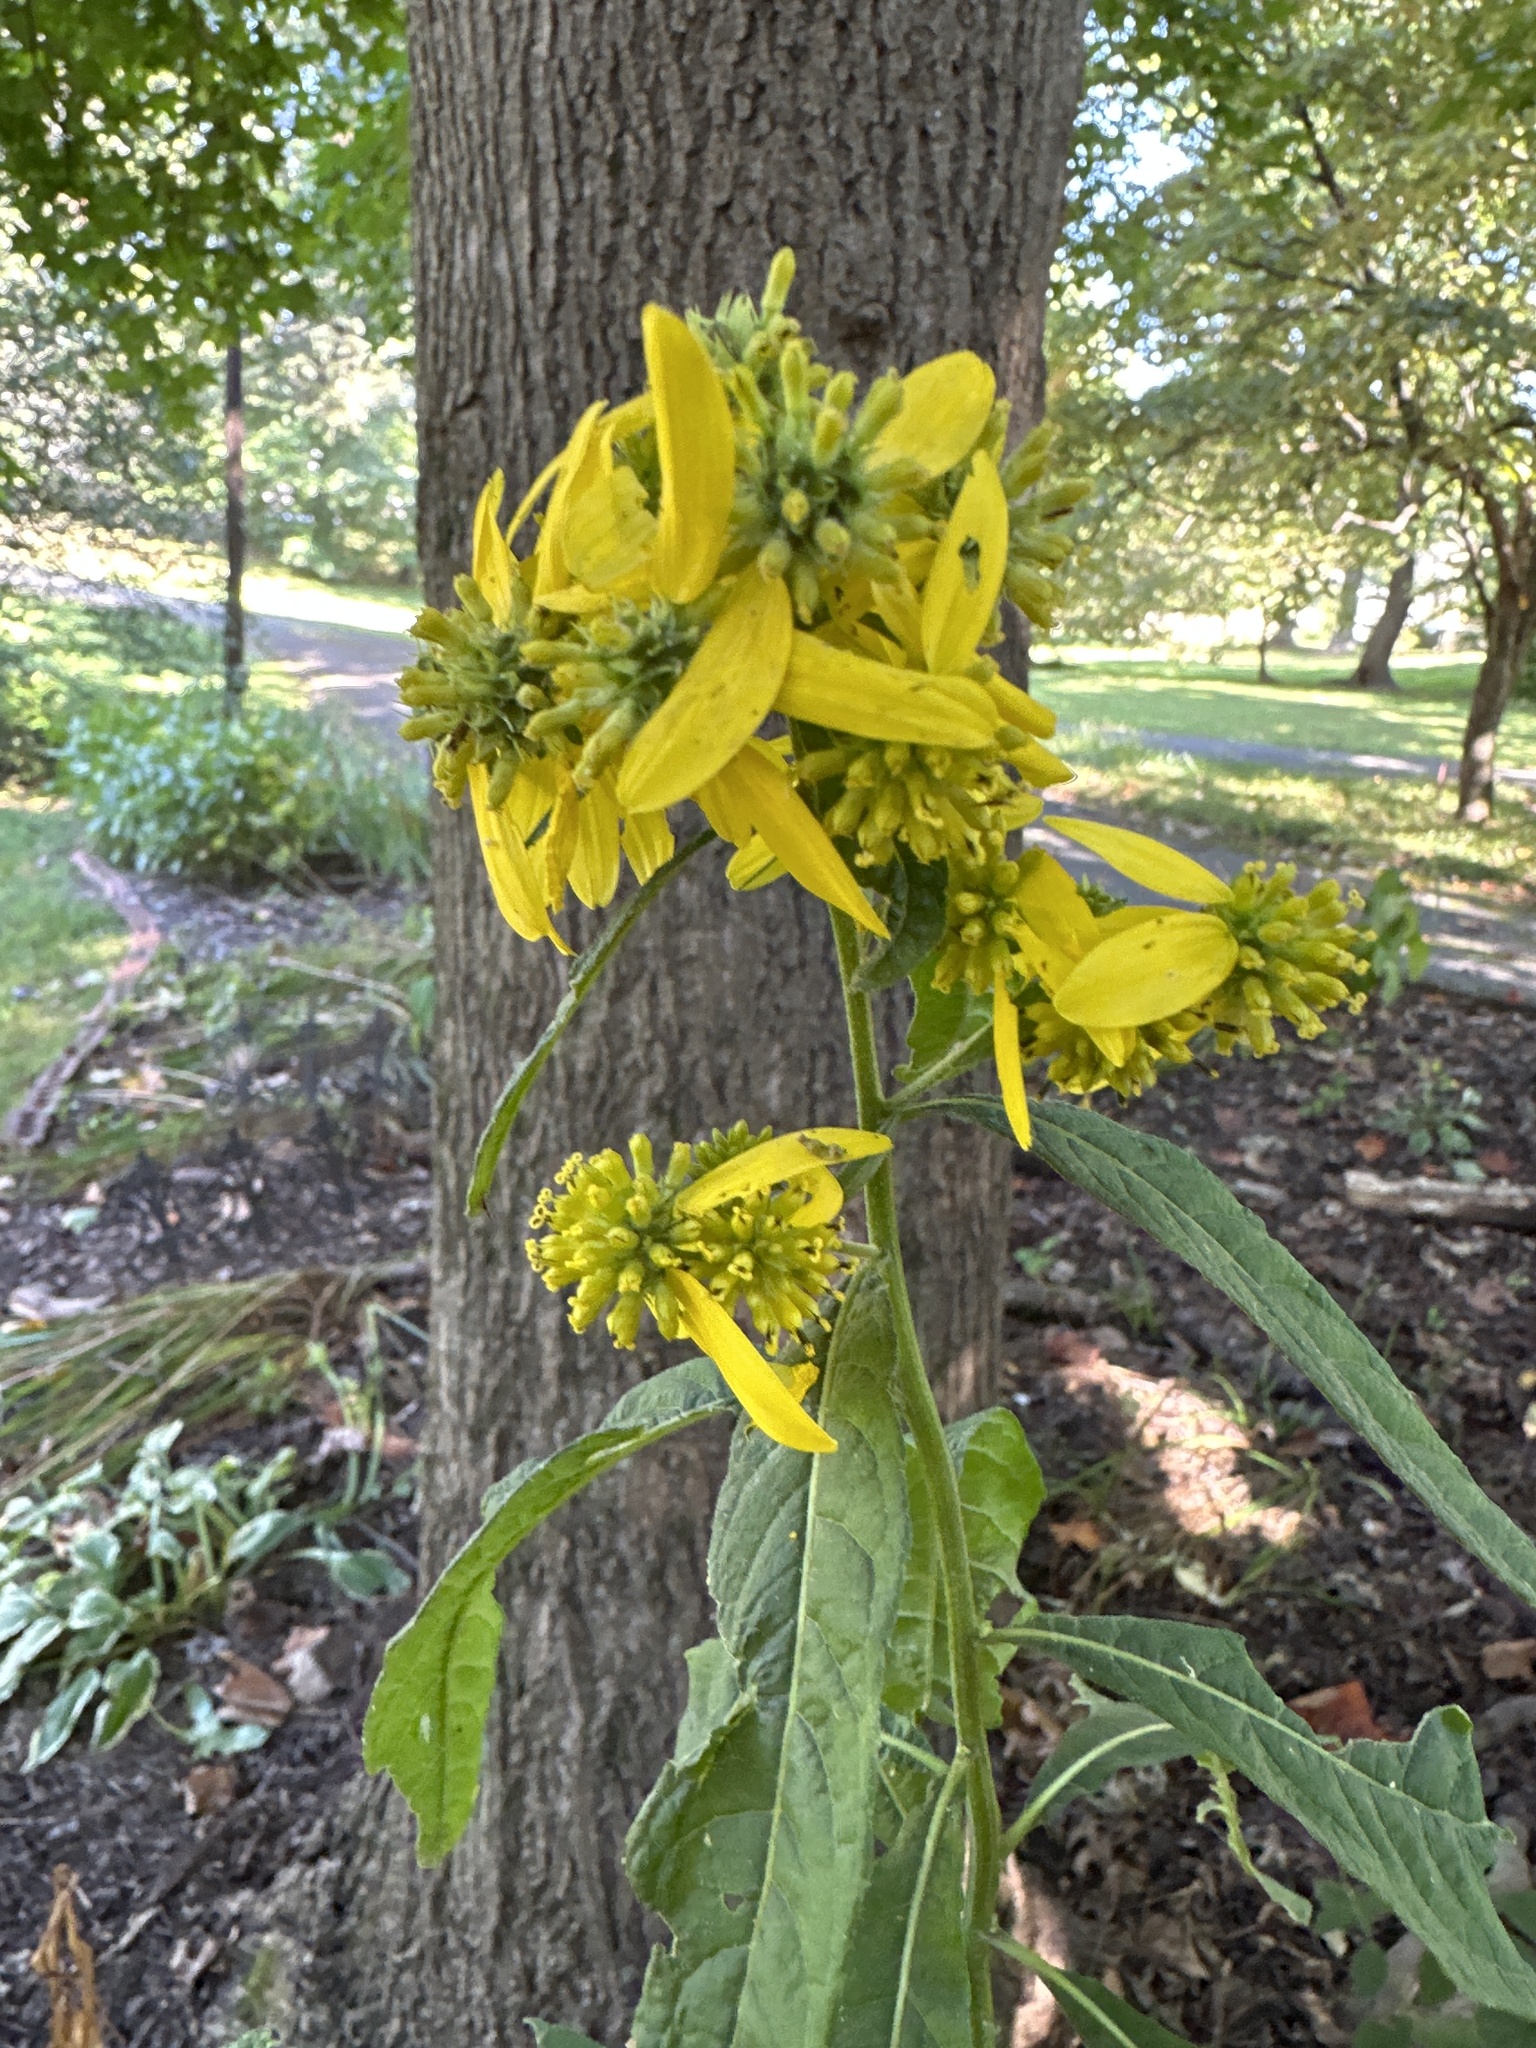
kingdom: Plantae
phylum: Tracheophyta
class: Magnoliopsida
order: Asterales
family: Asteraceae
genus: Verbesina
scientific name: Verbesina alternifolia
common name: Wingstem
